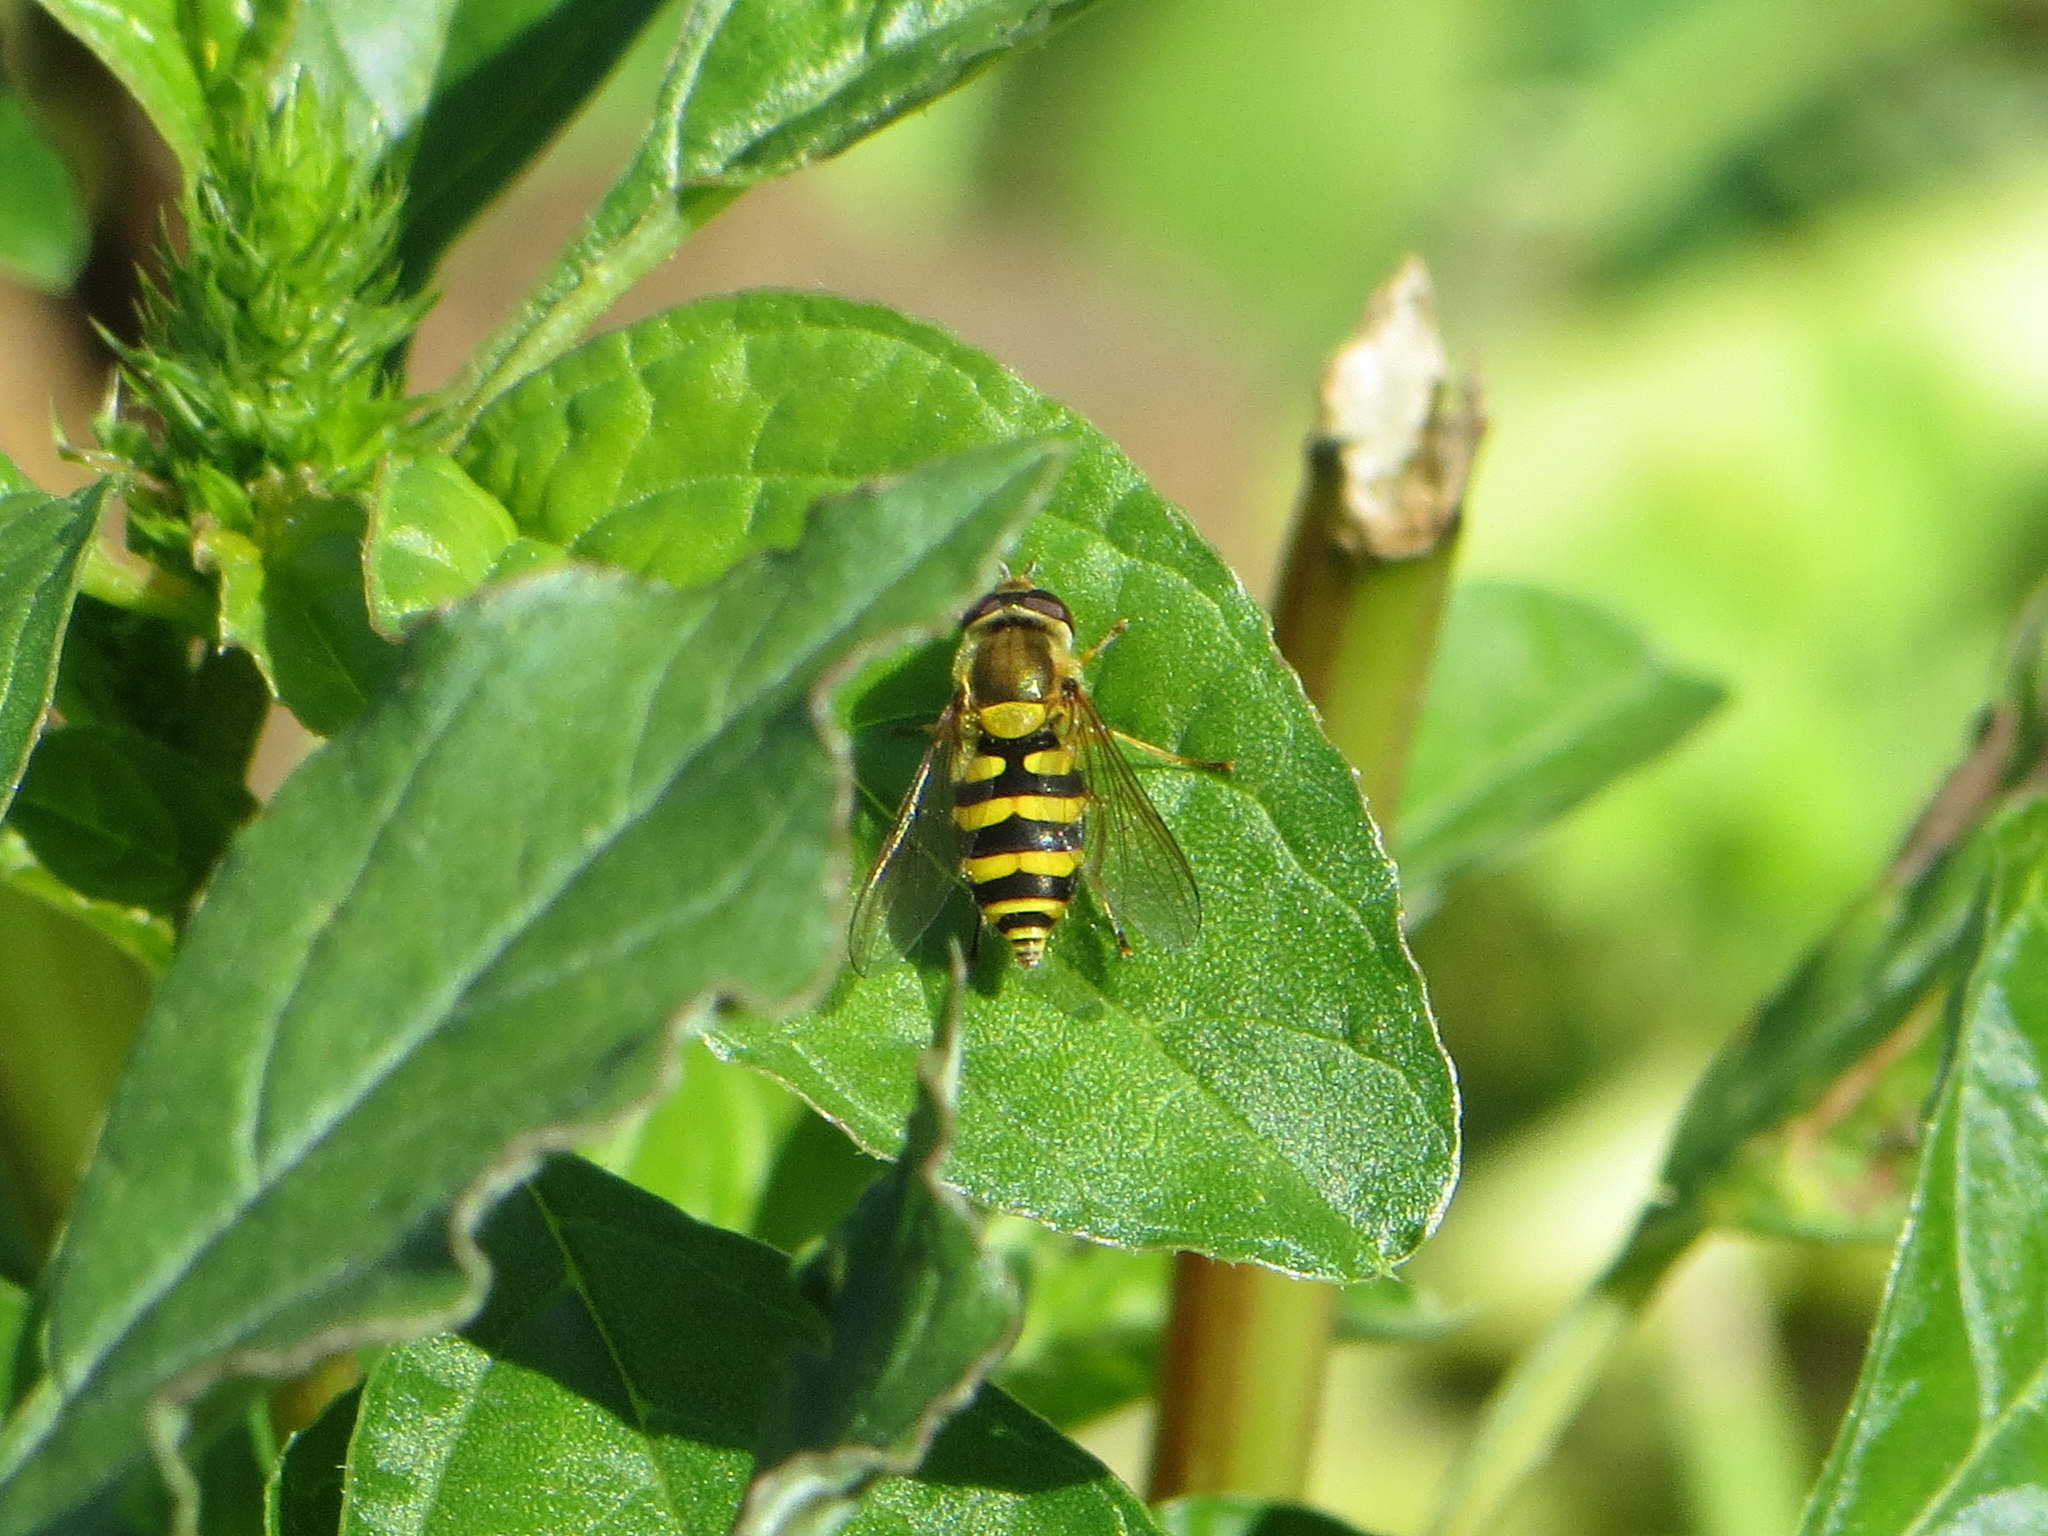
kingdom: Animalia
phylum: Arthropoda
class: Insecta
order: Diptera
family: Syrphidae
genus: Syrphus
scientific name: Syrphus
